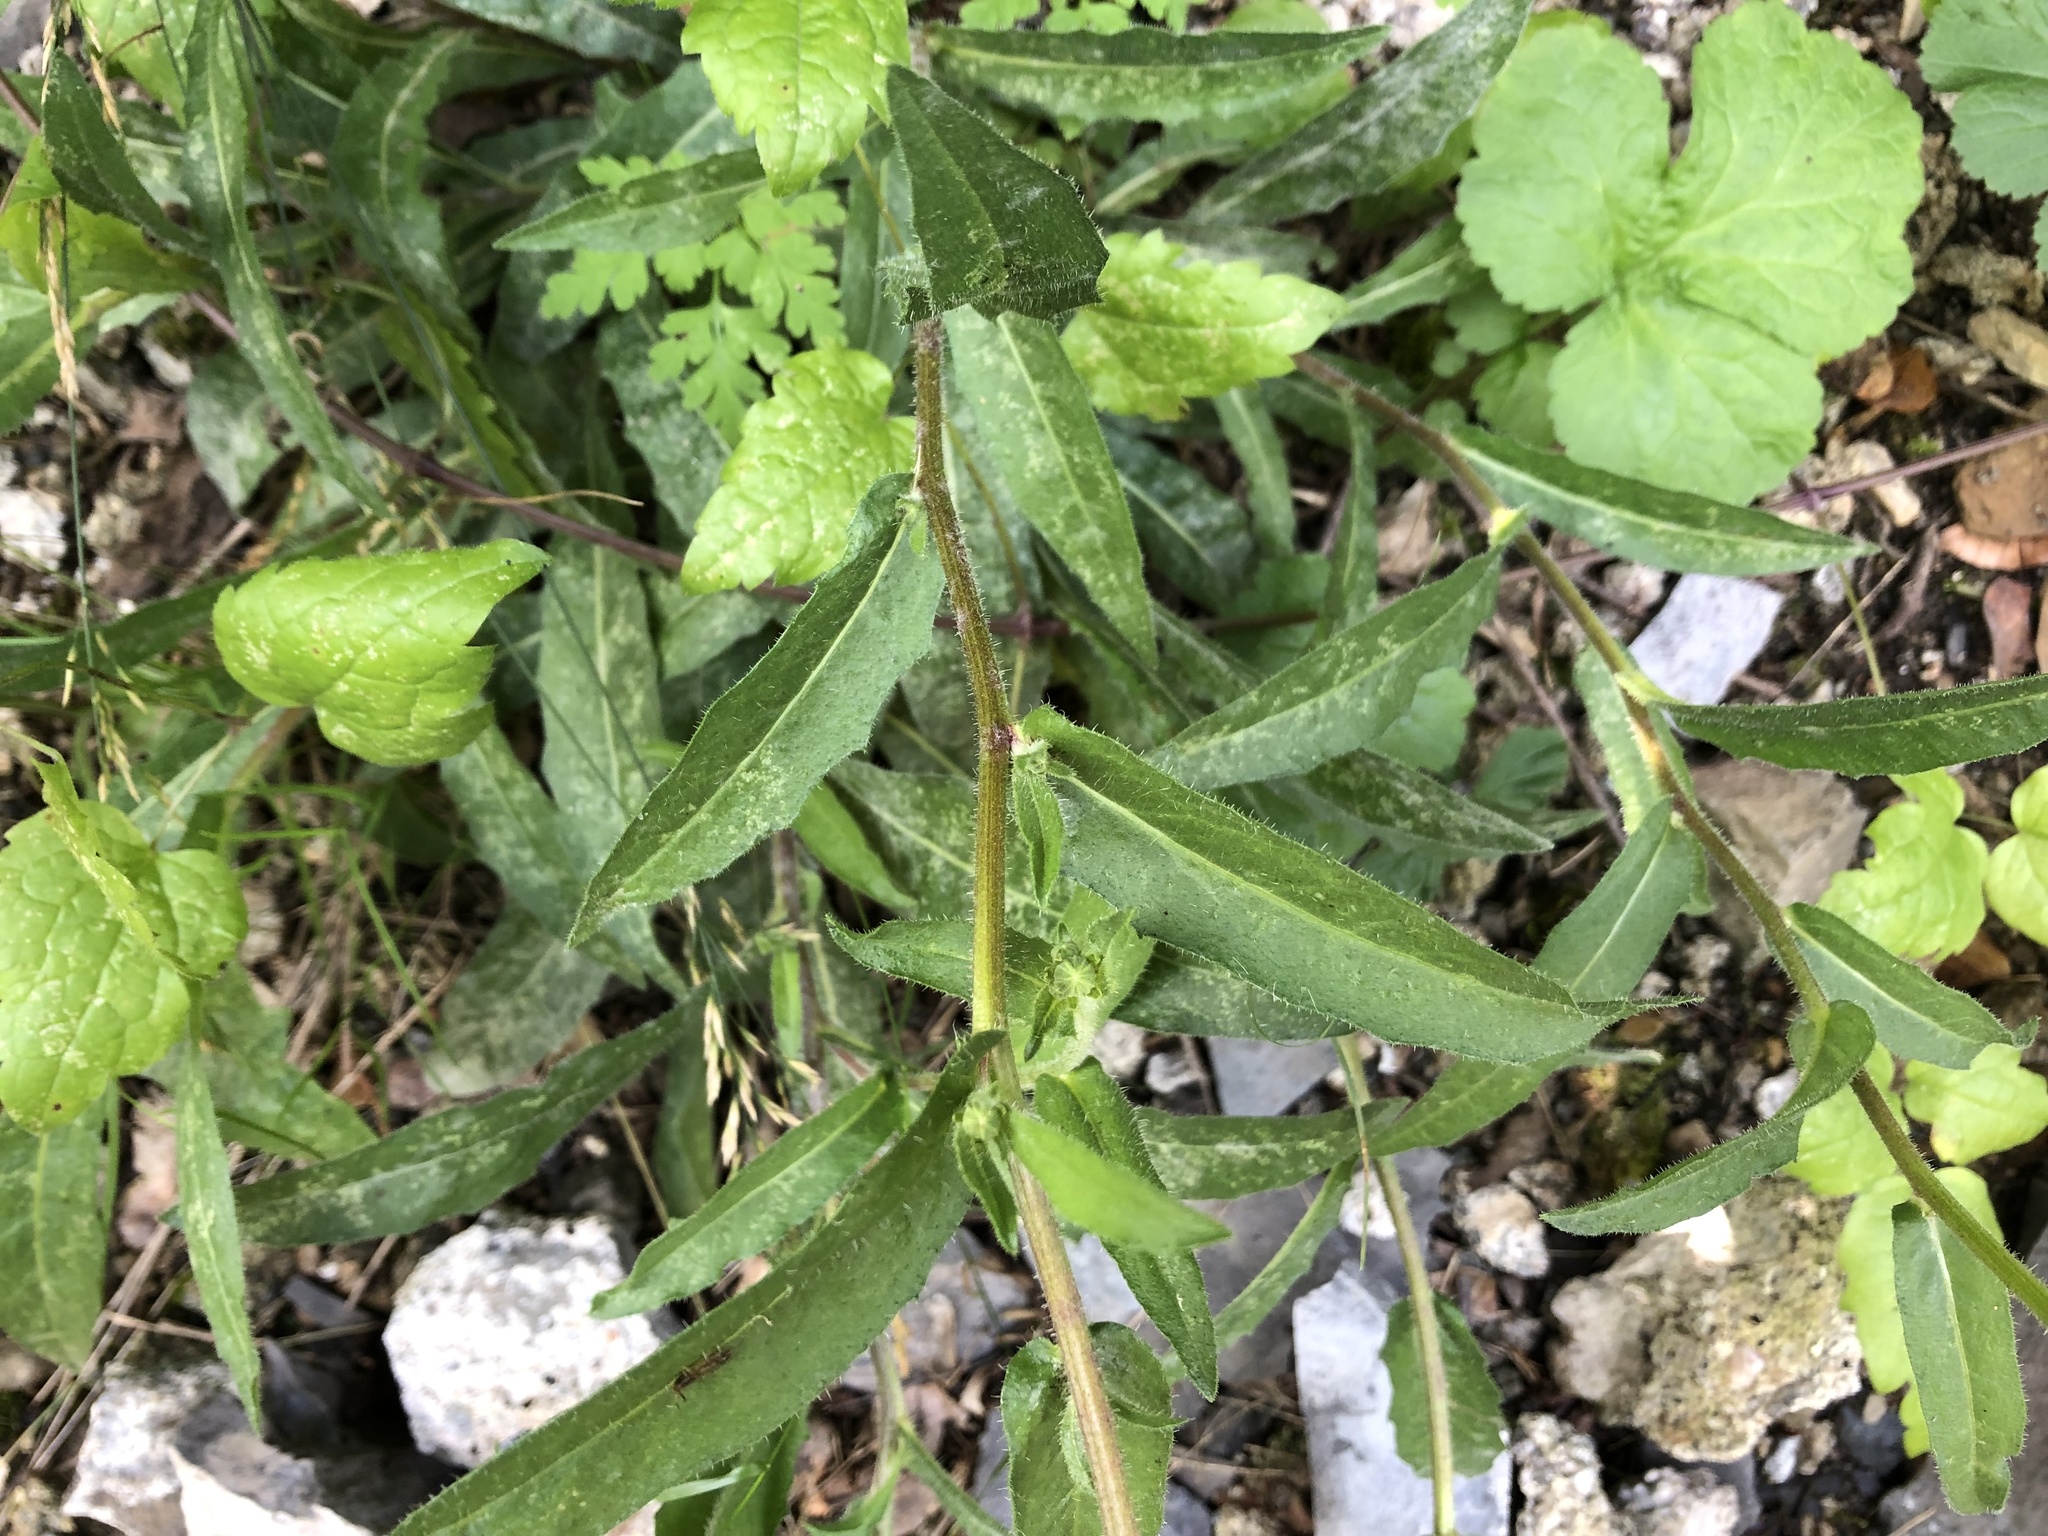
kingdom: Plantae
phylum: Tracheophyta
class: Magnoliopsida
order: Asterales
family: Asteraceae
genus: Picris
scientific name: Picris hieracioides
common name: Hawkweed oxtongue
